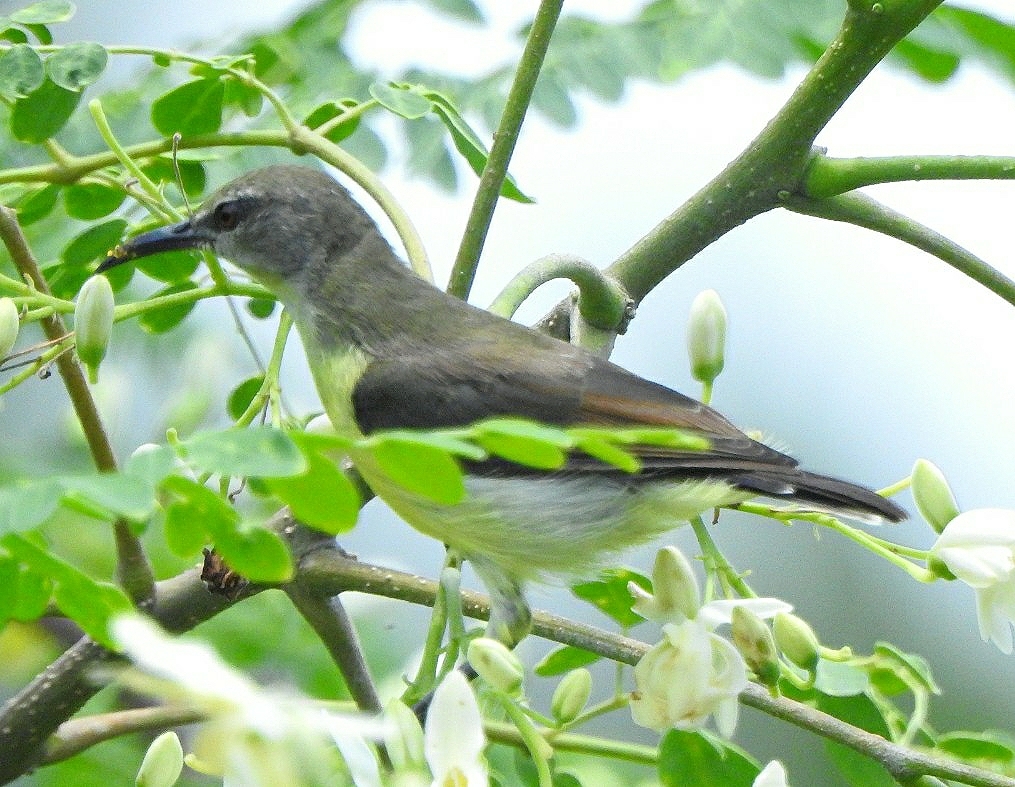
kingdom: Animalia
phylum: Chordata
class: Aves
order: Passeriformes
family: Nectariniidae
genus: Leptocoma
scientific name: Leptocoma zeylonica
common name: Purple-rumped sunbird
